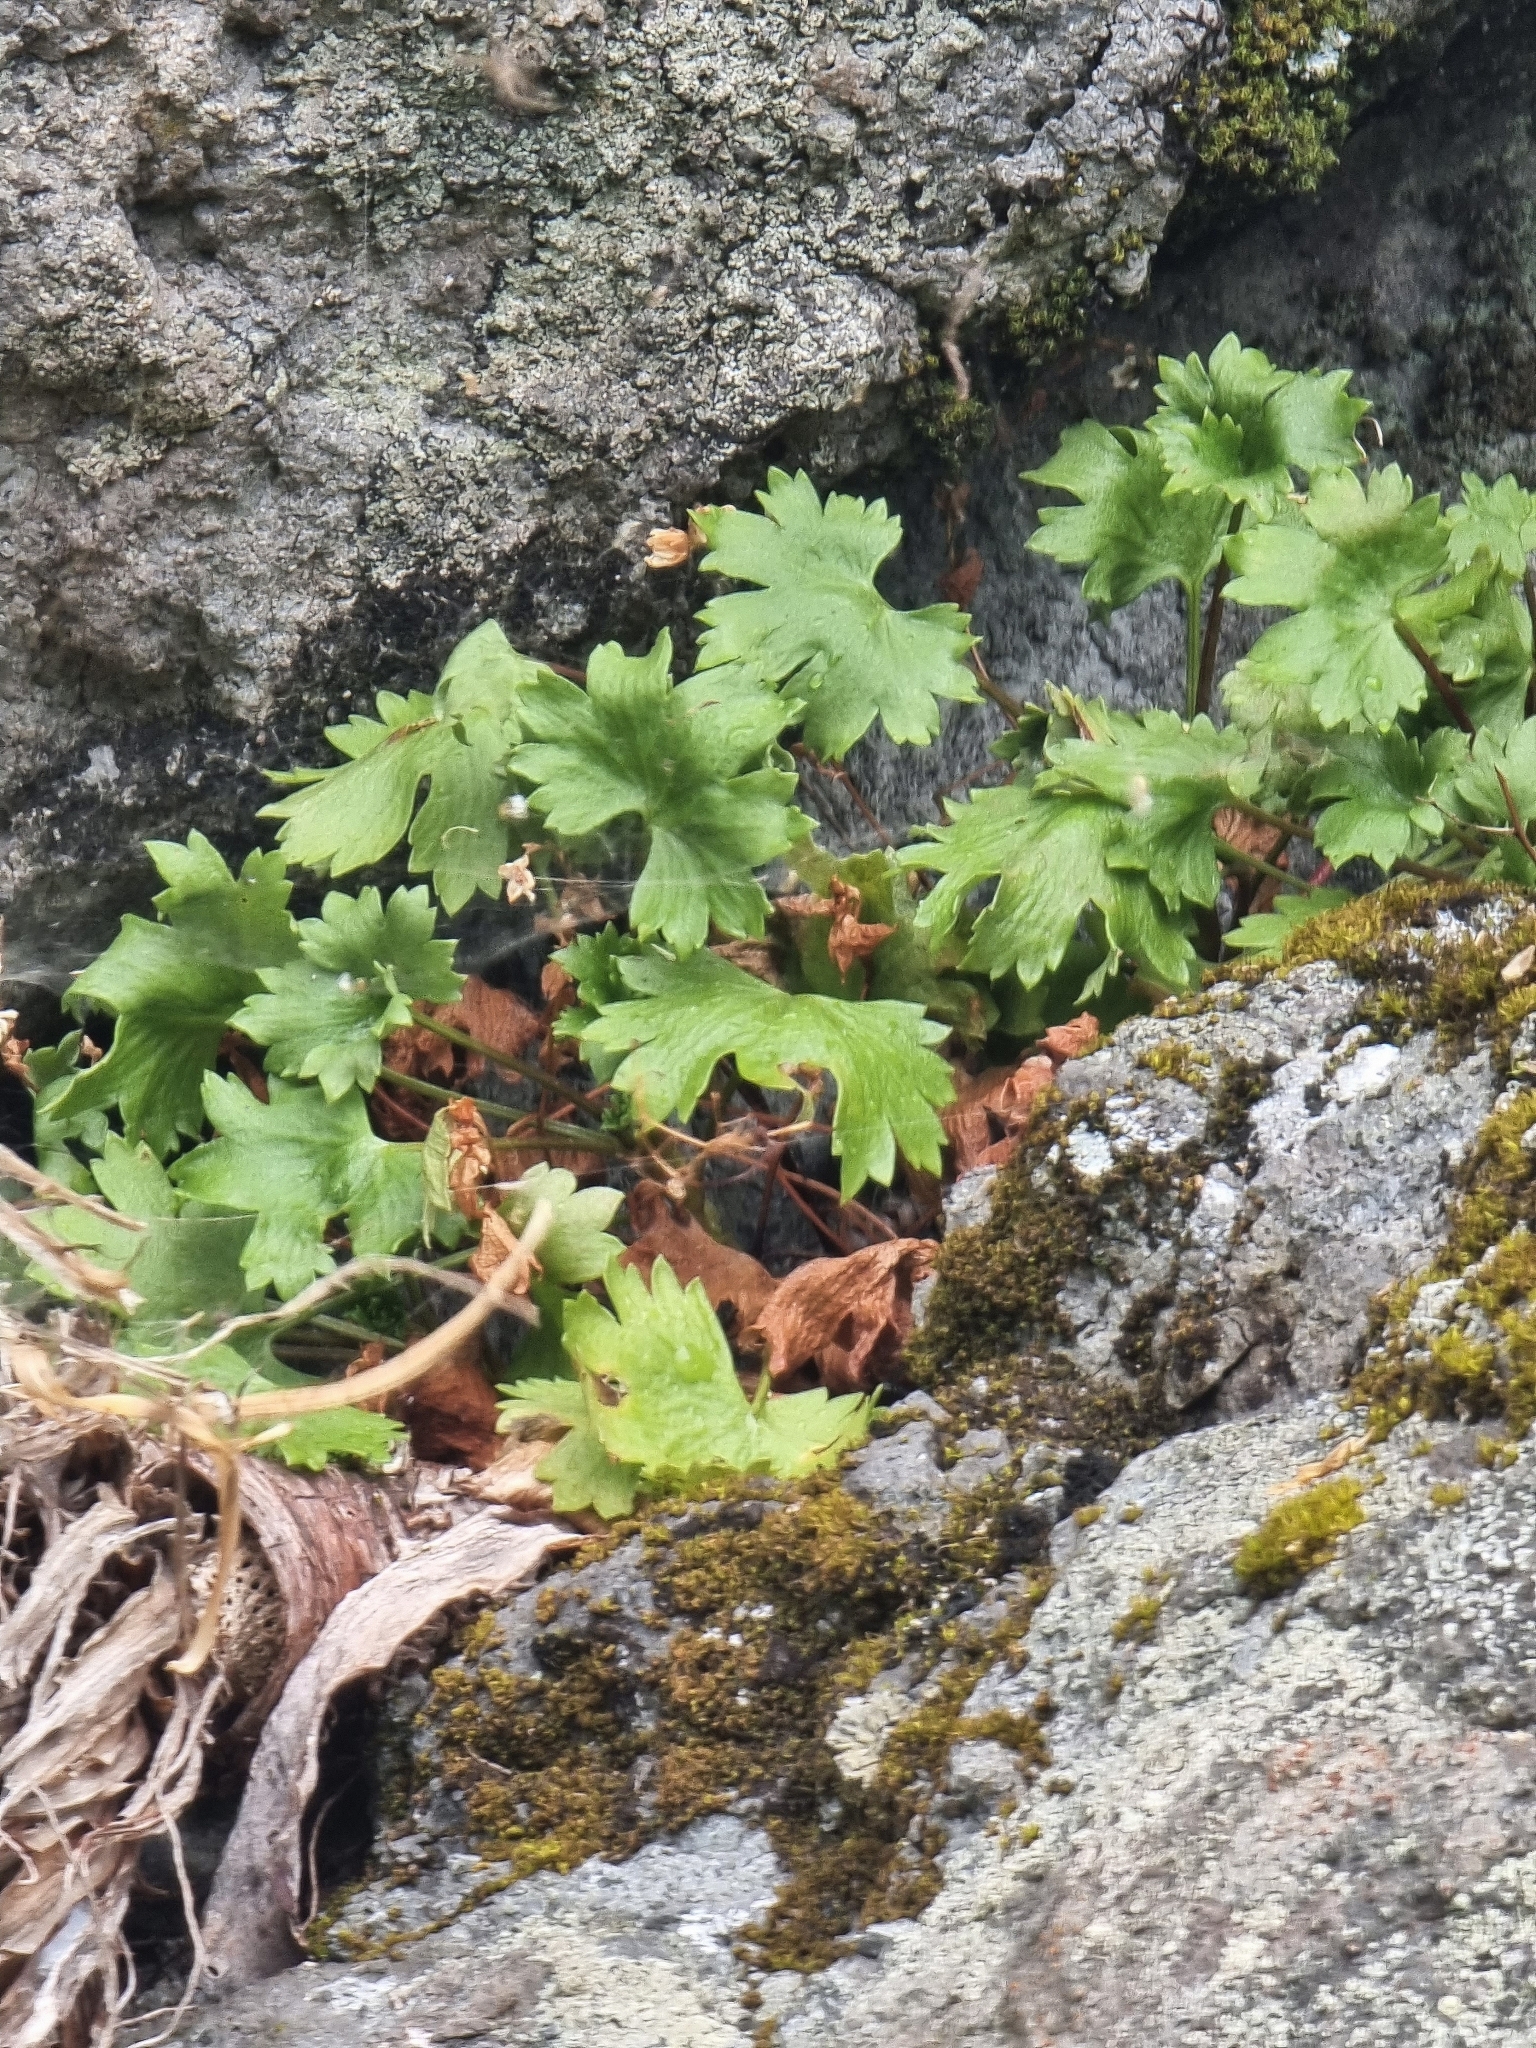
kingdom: Plantae
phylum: Tracheophyta
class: Magnoliopsida
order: Saxifragales
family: Saxifragaceae
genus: Saxifraga
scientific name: Saxifraga maderensis
